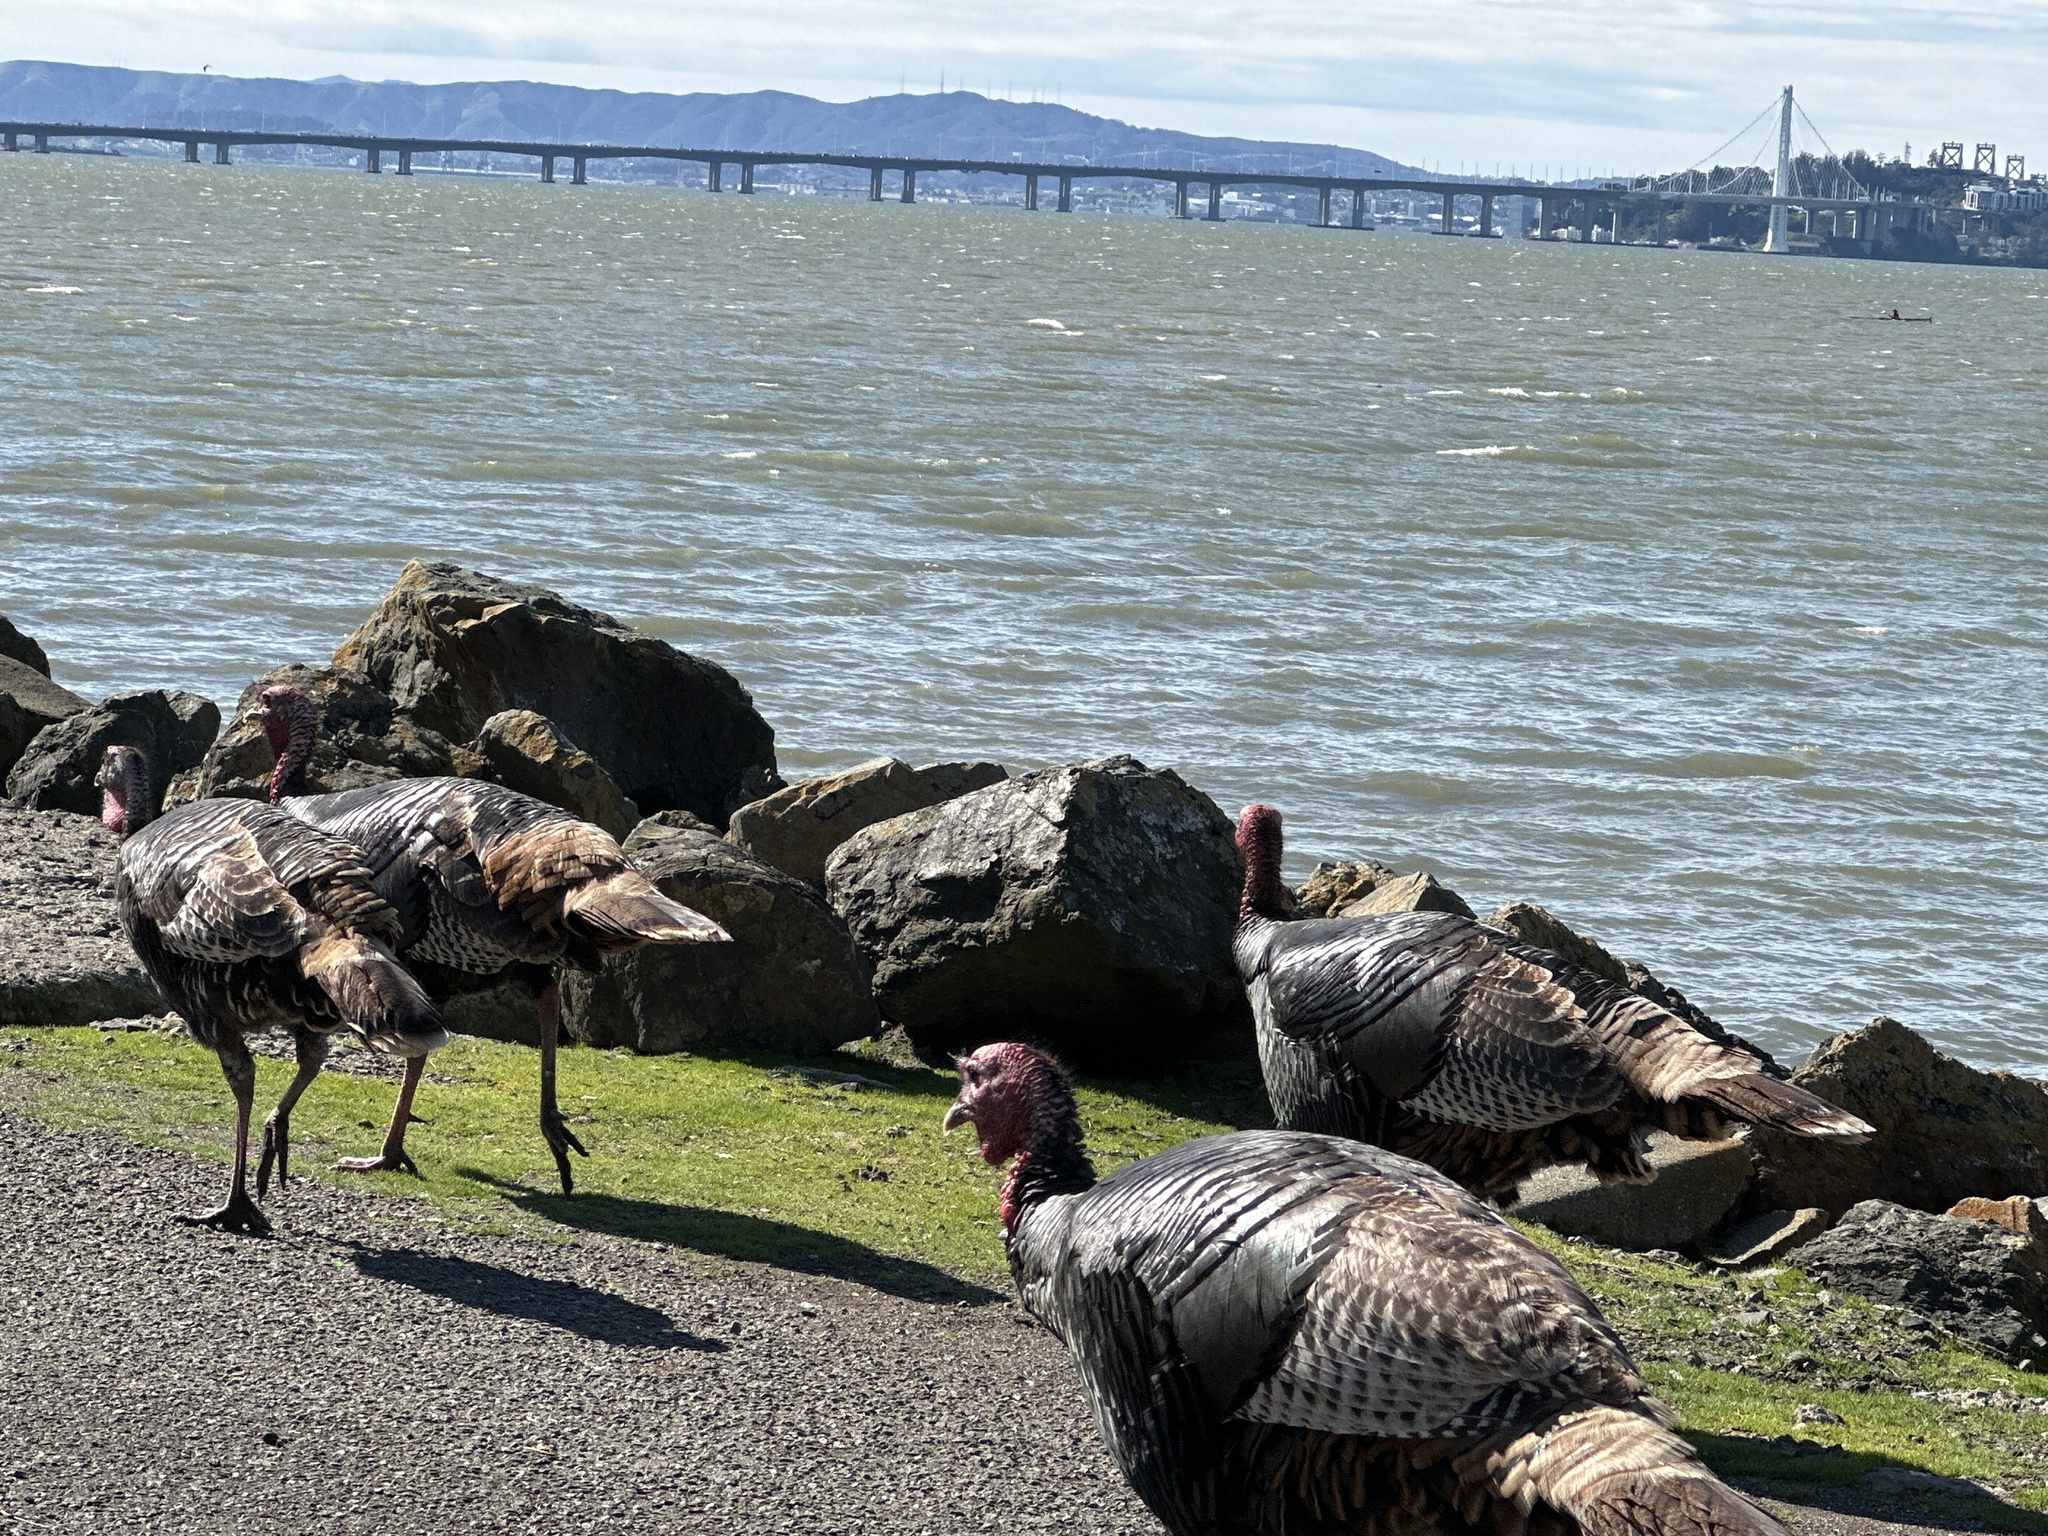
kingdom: Animalia
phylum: Chordata
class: Aves
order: Galliformes
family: Phasianidae
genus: Meleagris
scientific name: Meleagris gallopavo
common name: Wild turkey
